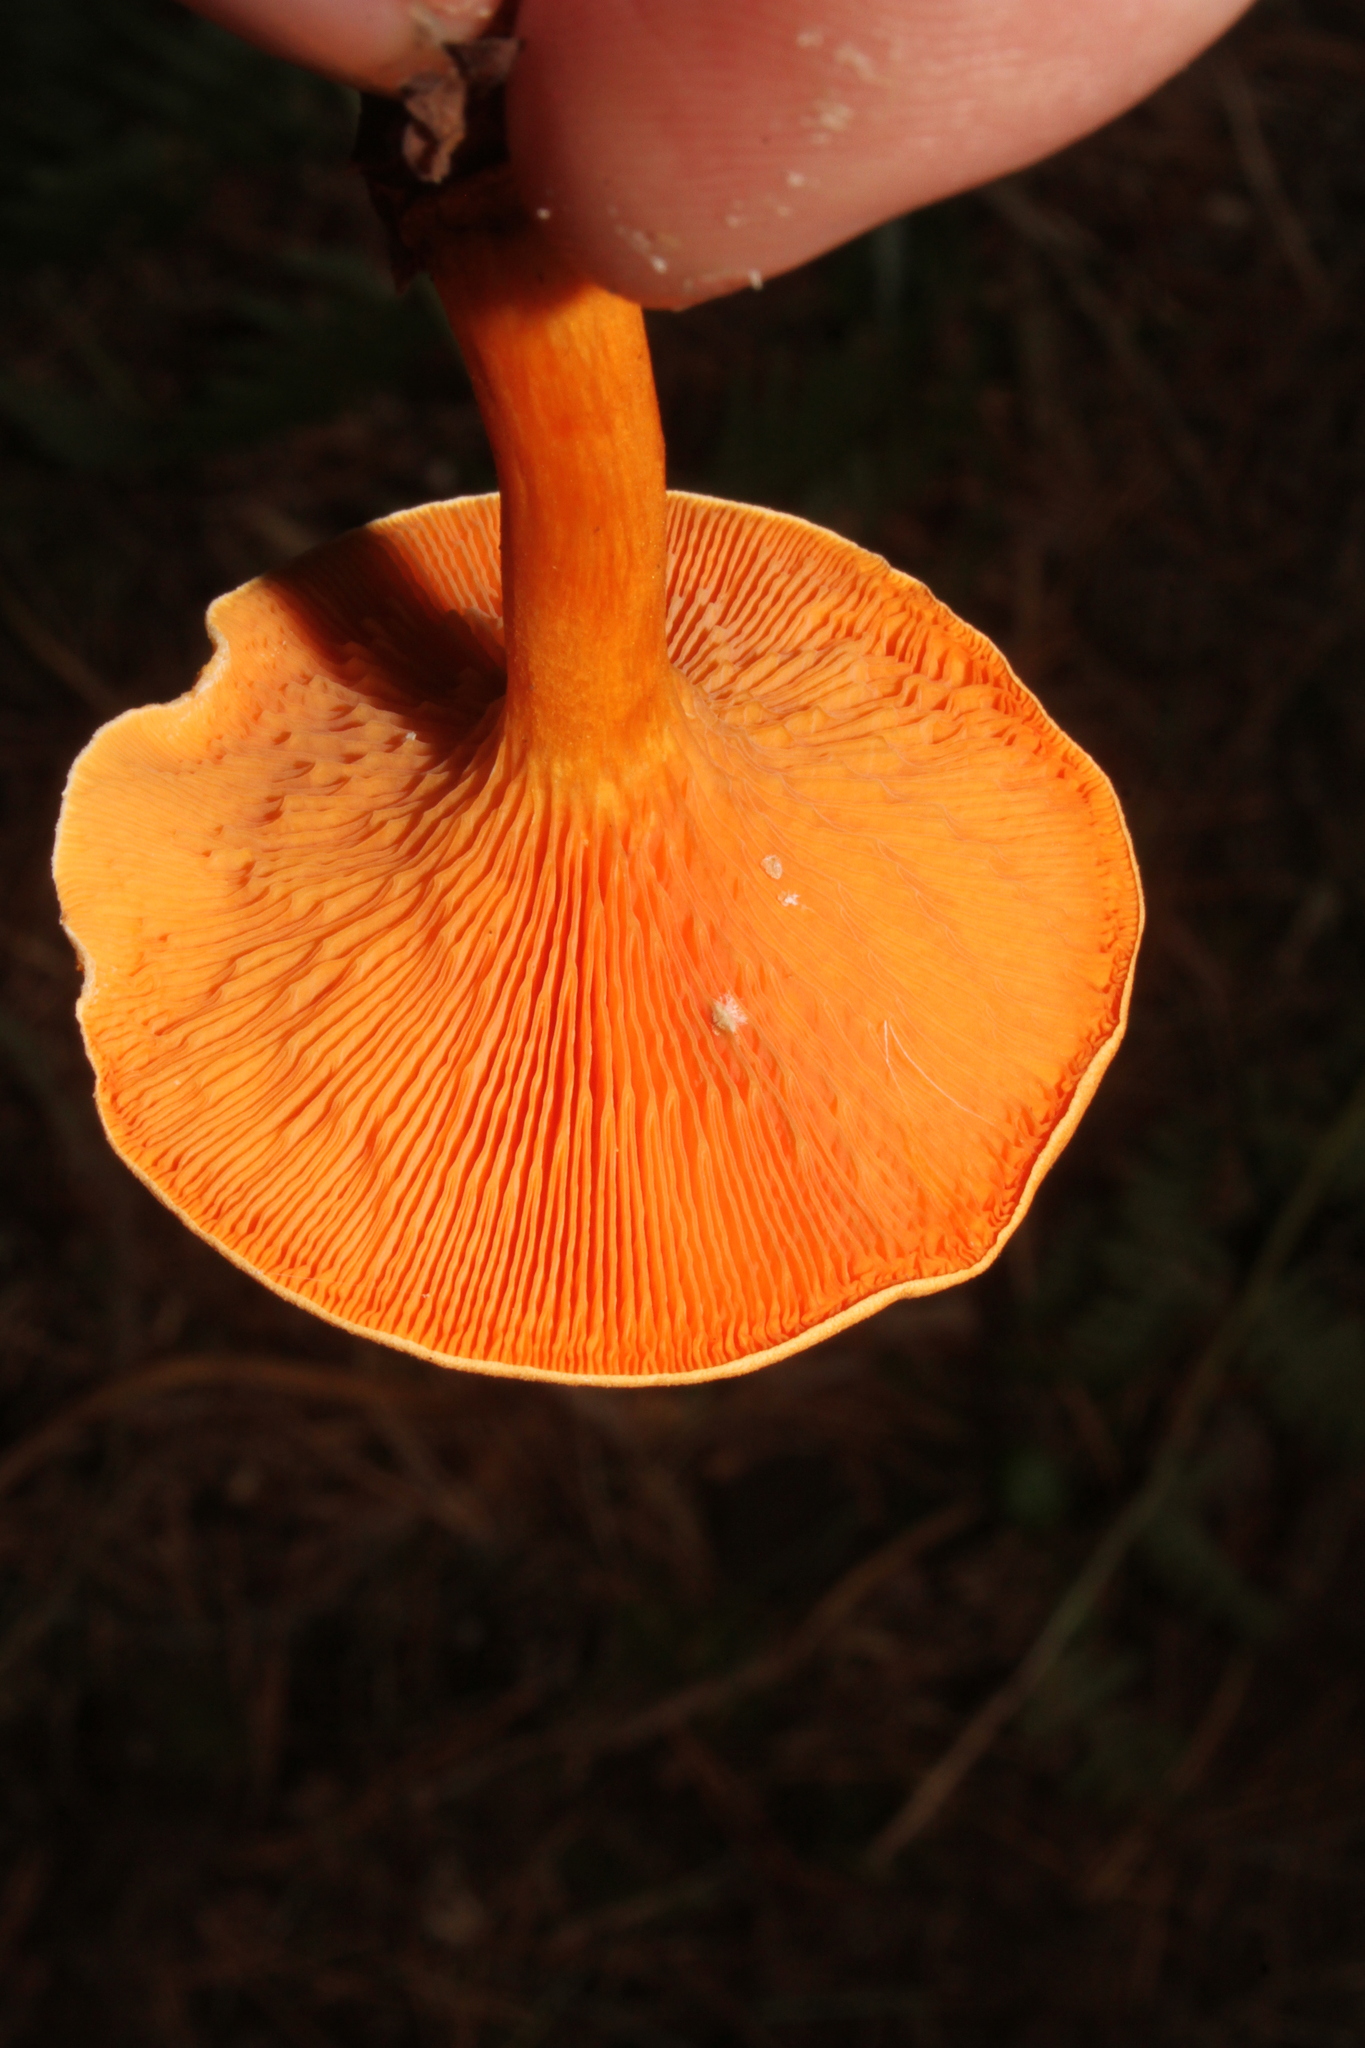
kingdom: Fungi
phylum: Basidiomycota
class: Agaricomycetes
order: Boletales
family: Hygrophoropsidaceae
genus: Hygrophoropsis
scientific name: Hygrophoropsis aurantiaca
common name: False chanterelle
